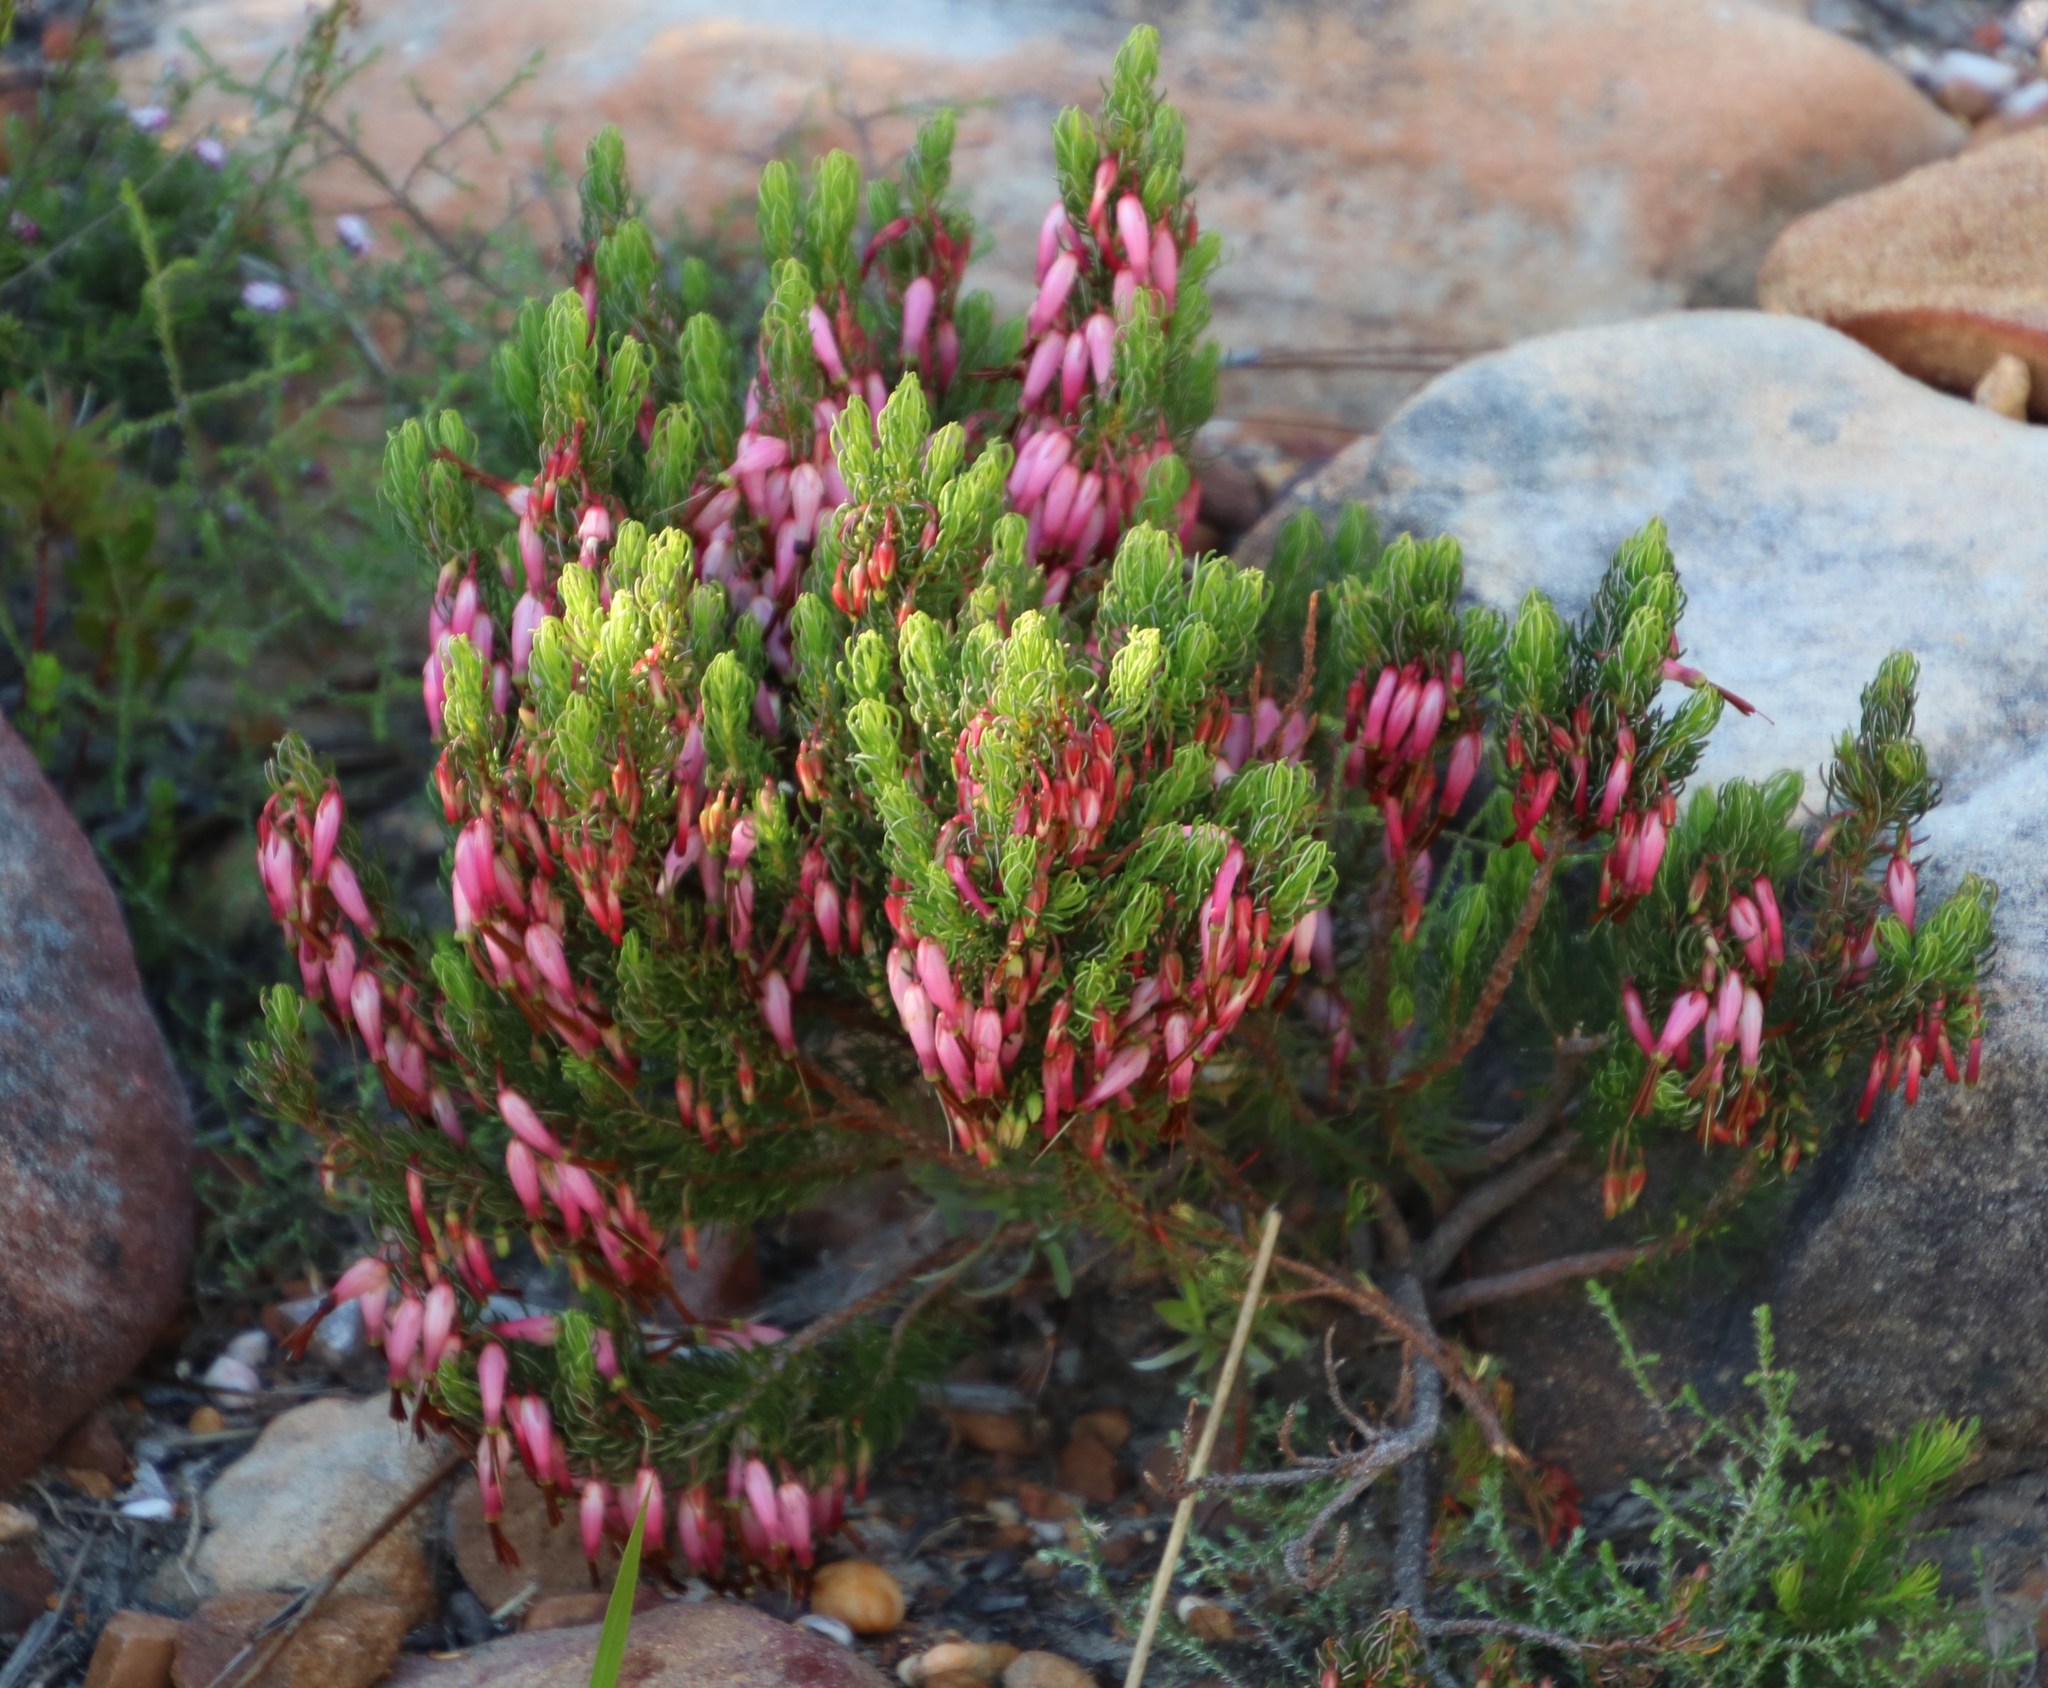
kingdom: Plantae
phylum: Tracheophyta
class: Magnoliopsida
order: Ericales
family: Ericaceae
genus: Erica
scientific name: Erica plukenetii
